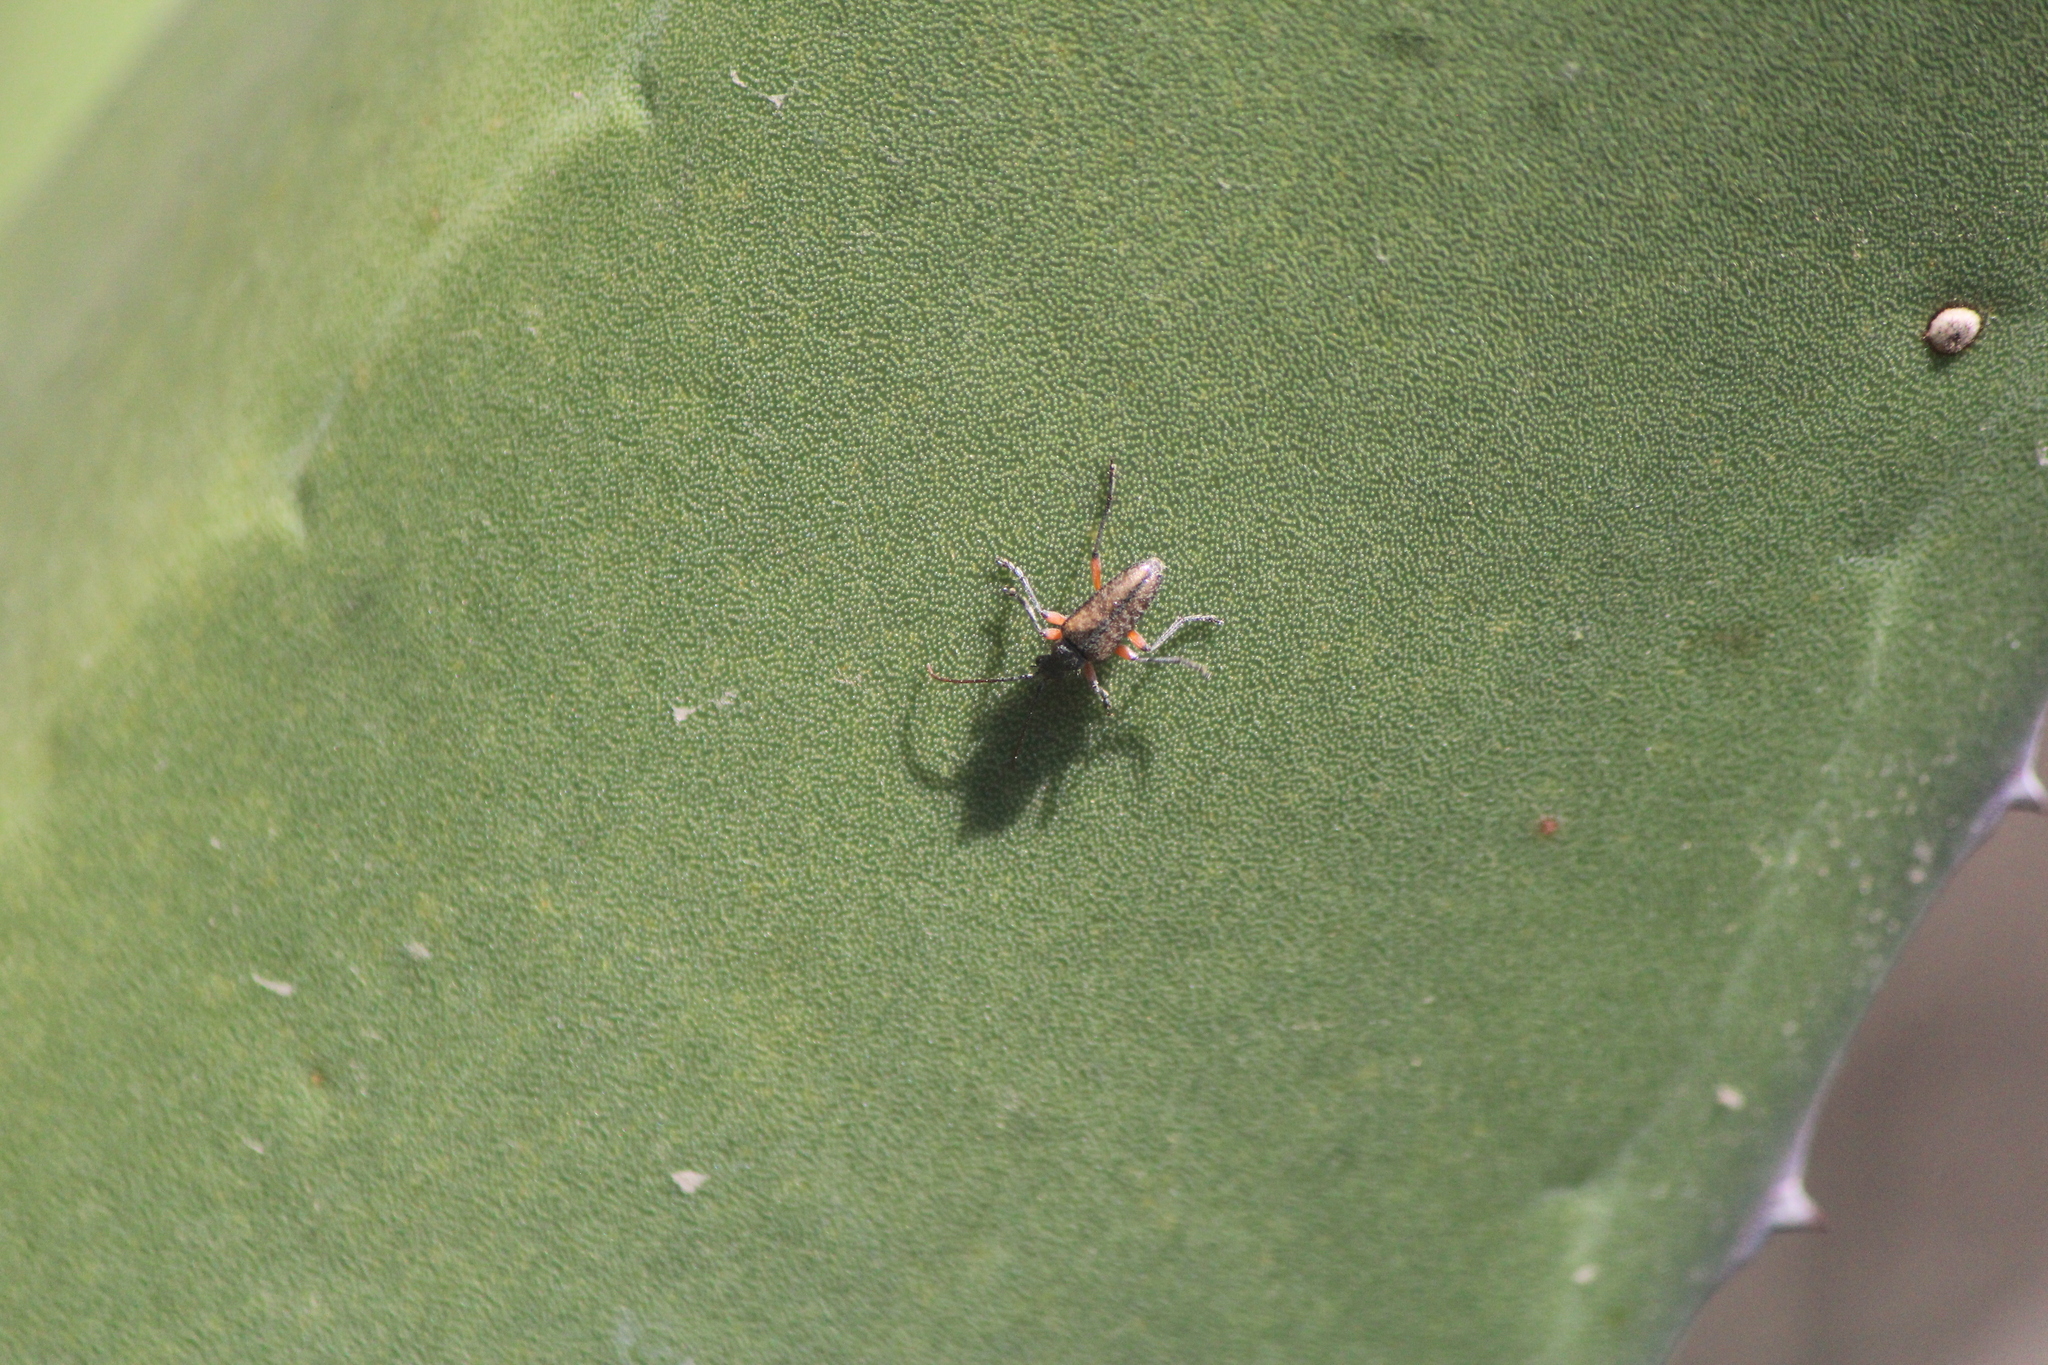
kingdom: Animalia
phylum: Arthropoda
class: Insecta
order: Coleoptera
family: Cerambycidae
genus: Tomentgaurotes
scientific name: Tomentgaurotes maculosus
